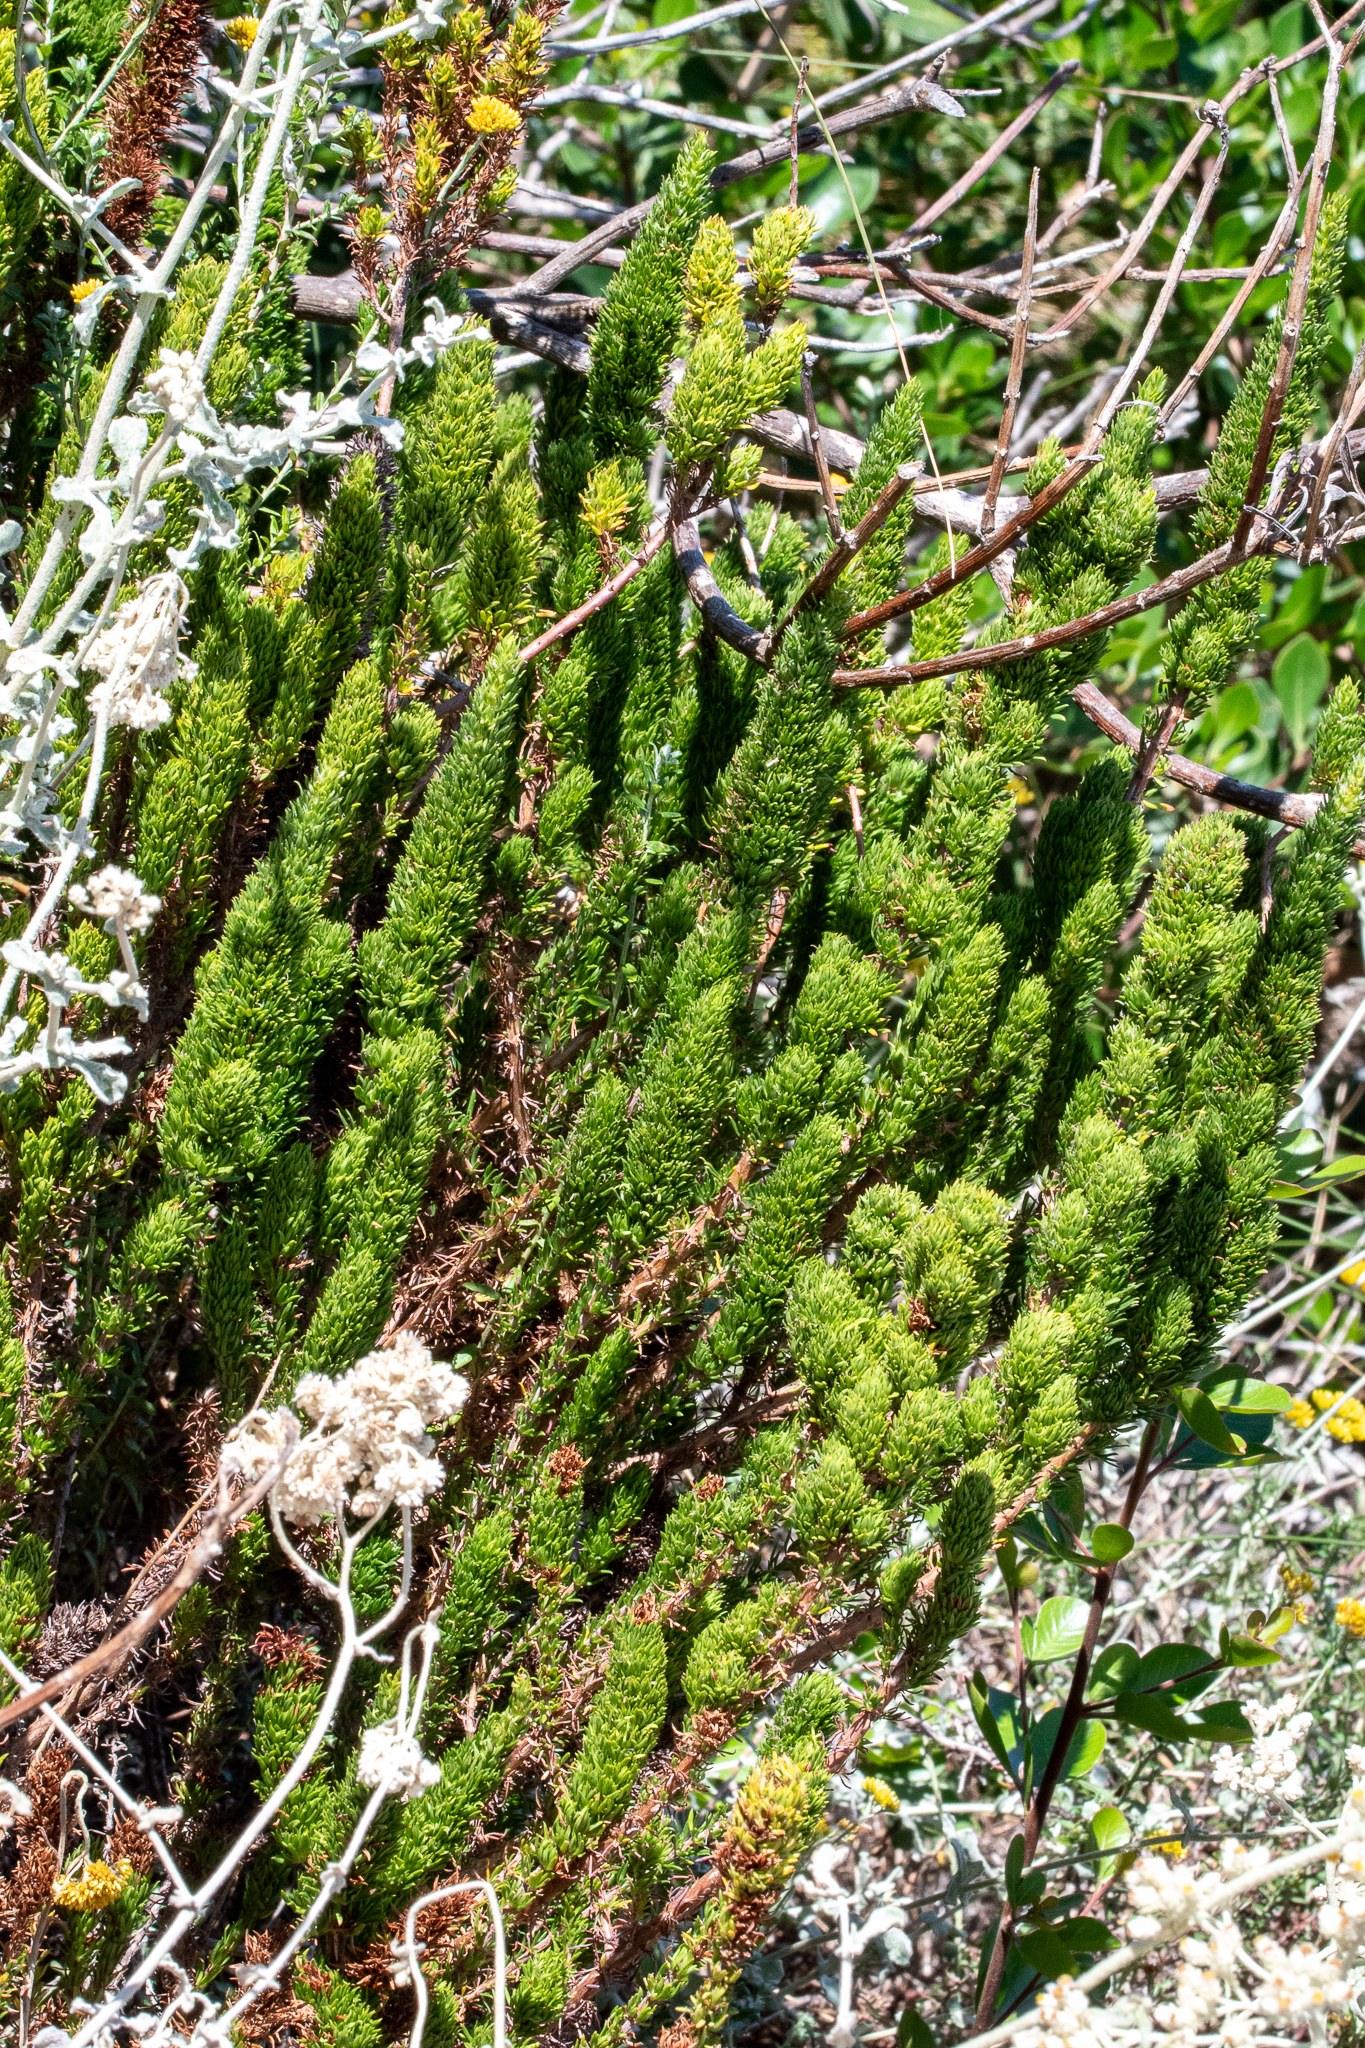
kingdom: Plantae
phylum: Tracheophyta
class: Magnoliopsida
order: Gentianales
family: Rubiaceae
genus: Anthospermum
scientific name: Anthospermum aethiopicum
